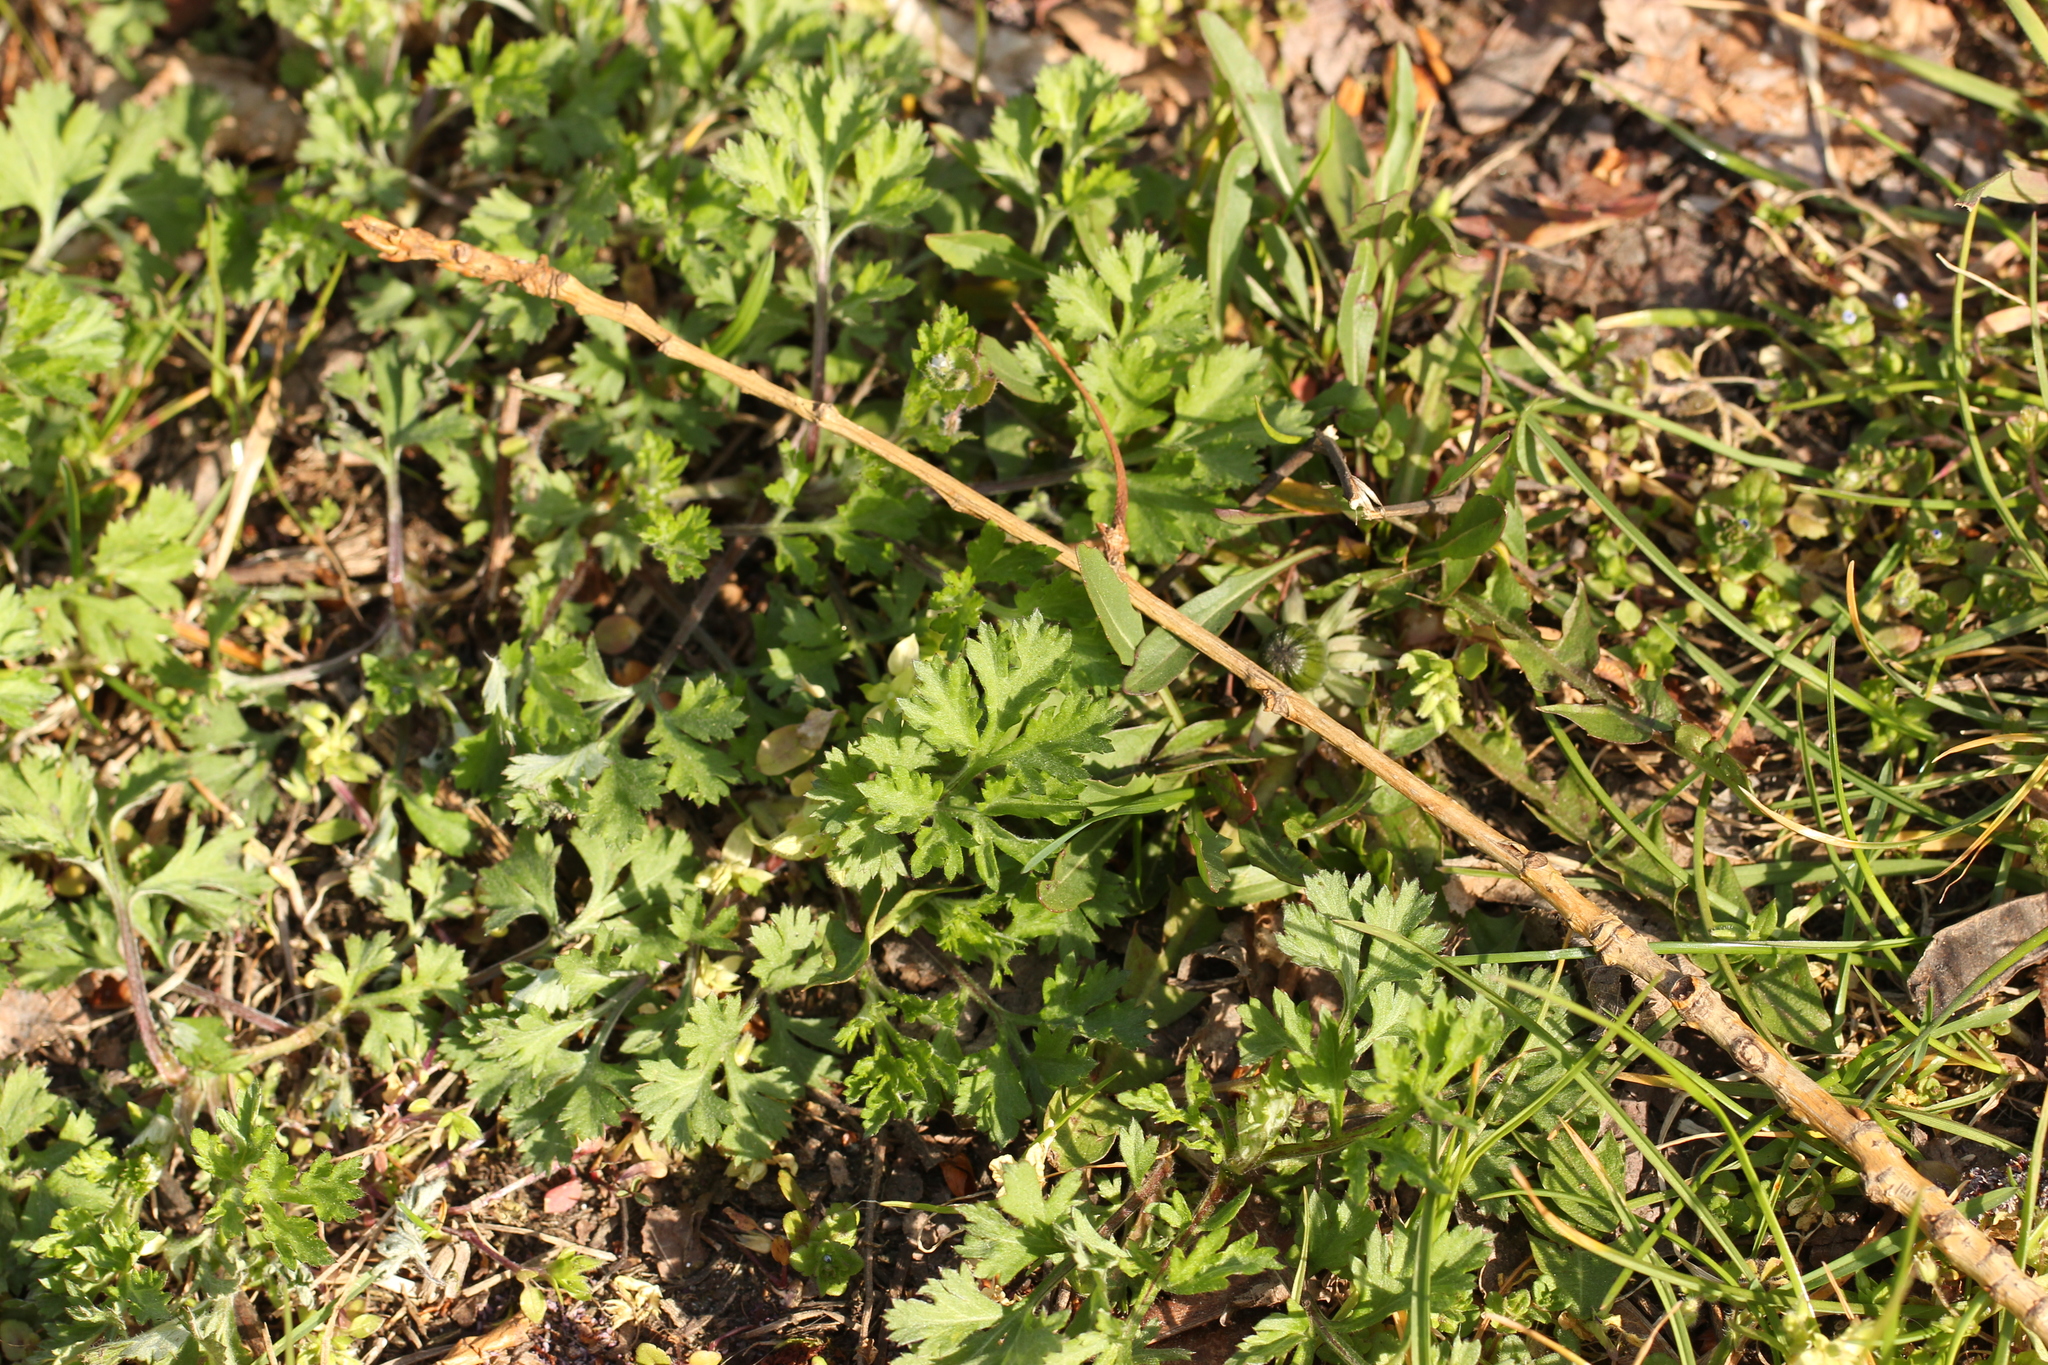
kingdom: Plantae
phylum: Tracheophyta
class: Magnoliopsida
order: Asterales
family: Asteraceae
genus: Artemisia
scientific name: Artemisia vulgaris
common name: Mugwort
